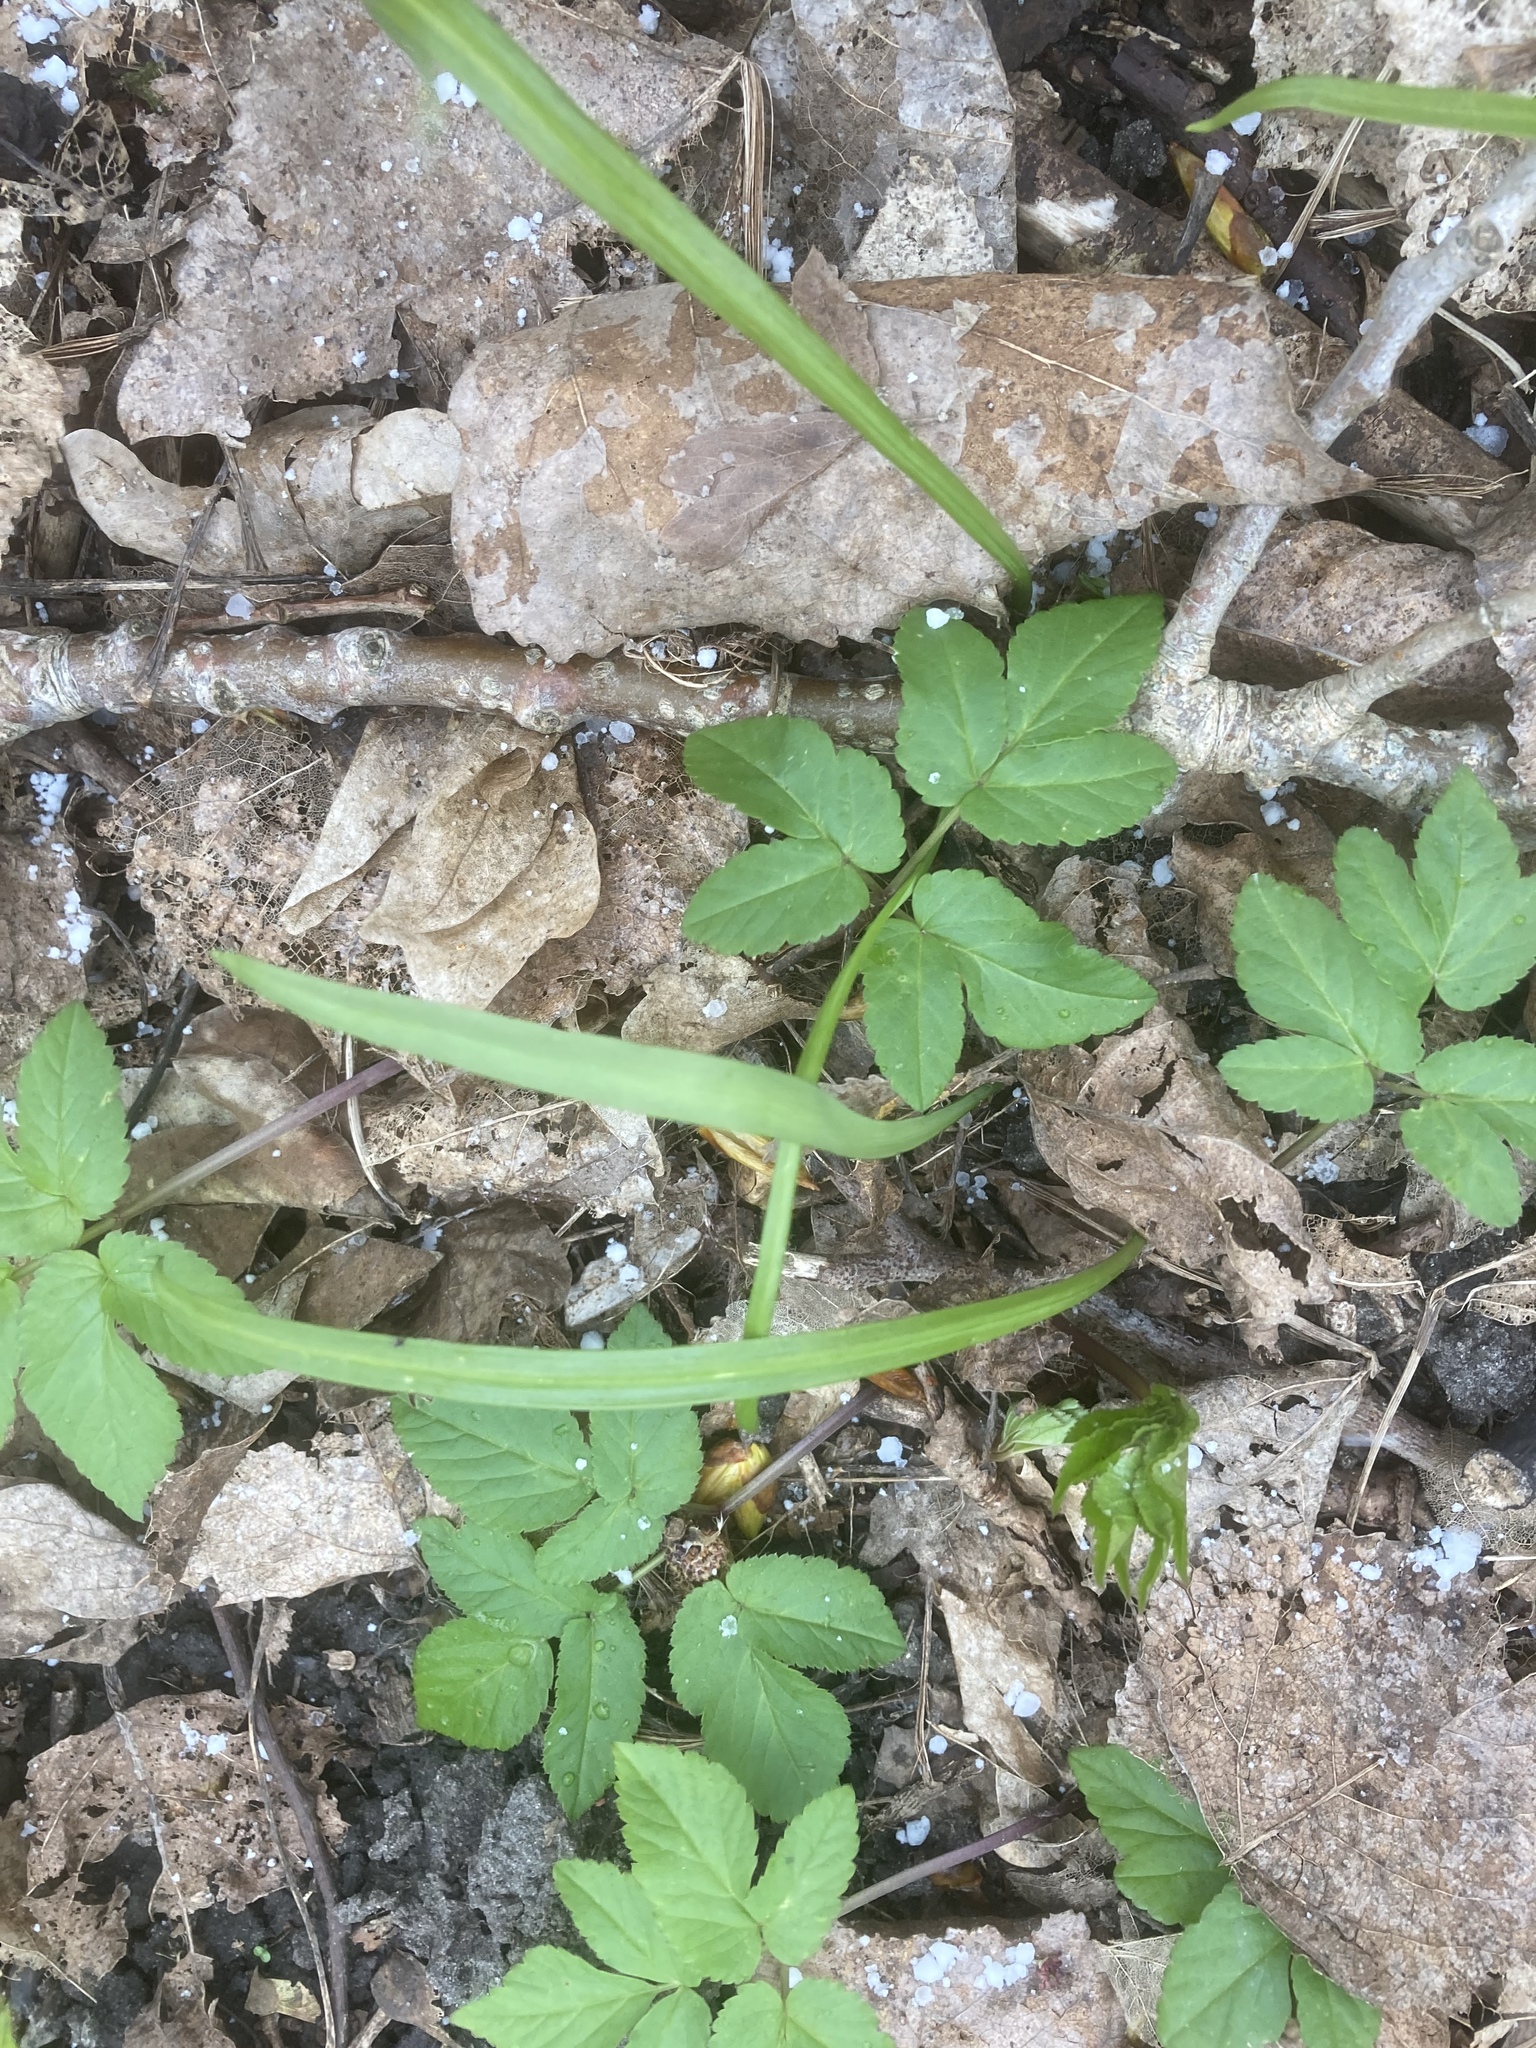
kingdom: Plantae
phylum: Tracheophyta
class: Magnoliopsida
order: Apiales
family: Apiaceae
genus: Aegopodium
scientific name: Aegopodium podagraria
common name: Ground-elder
